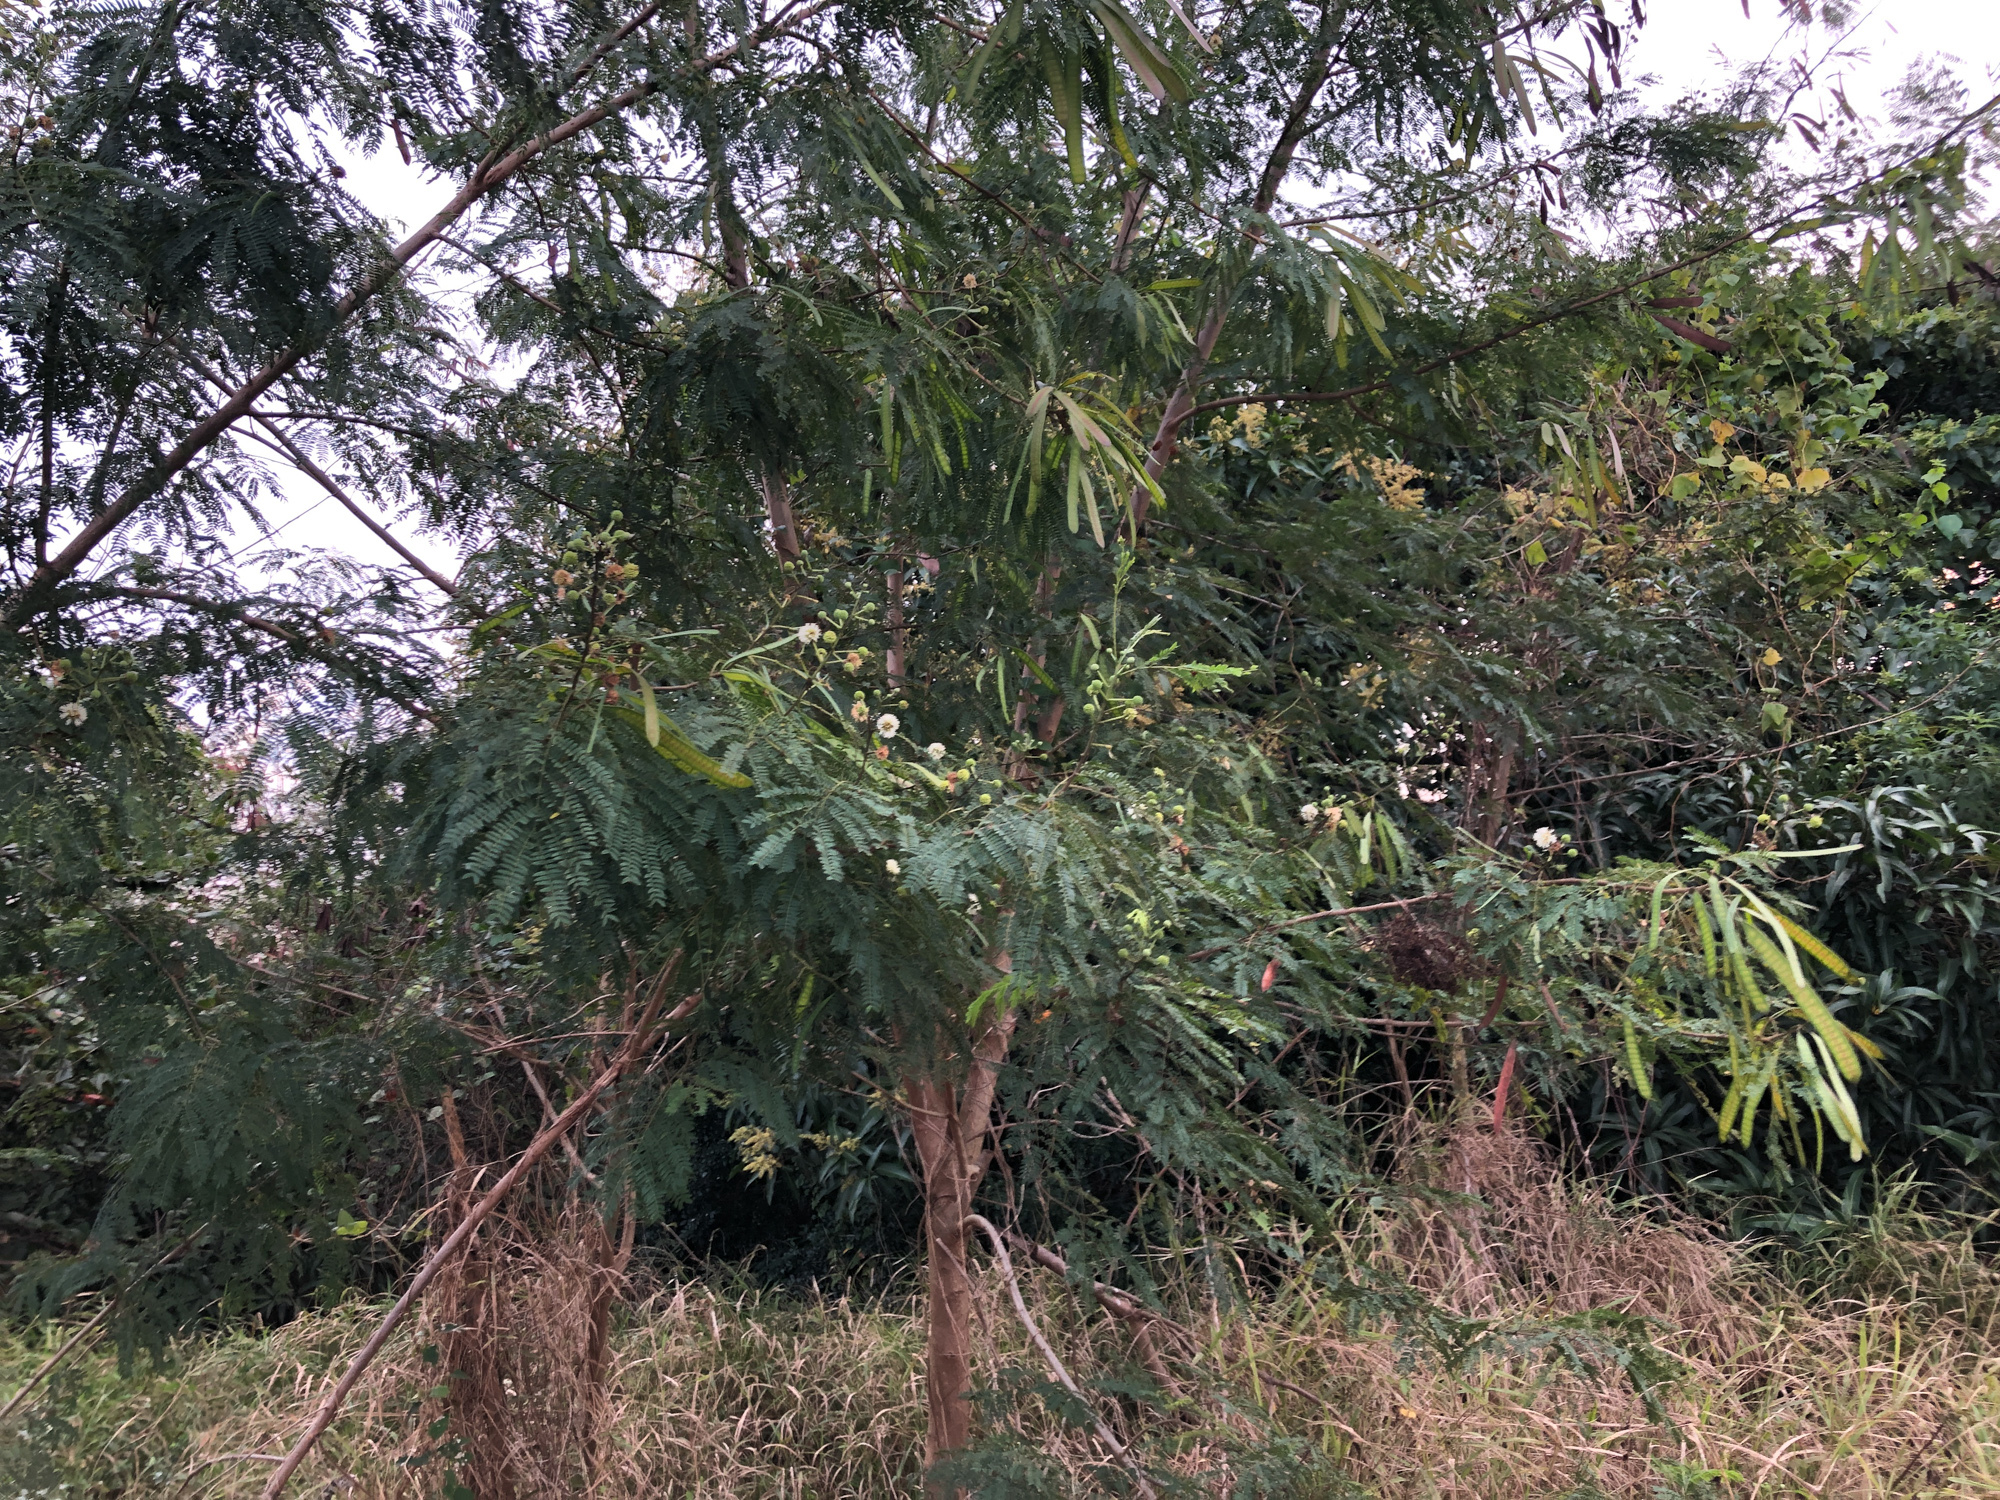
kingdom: Plantae
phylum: Tracheophyta
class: Magnoliopsida
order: Fabales
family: Fabaceae
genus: Leucaena
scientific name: Leucaena leucocephala
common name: White leadtree
